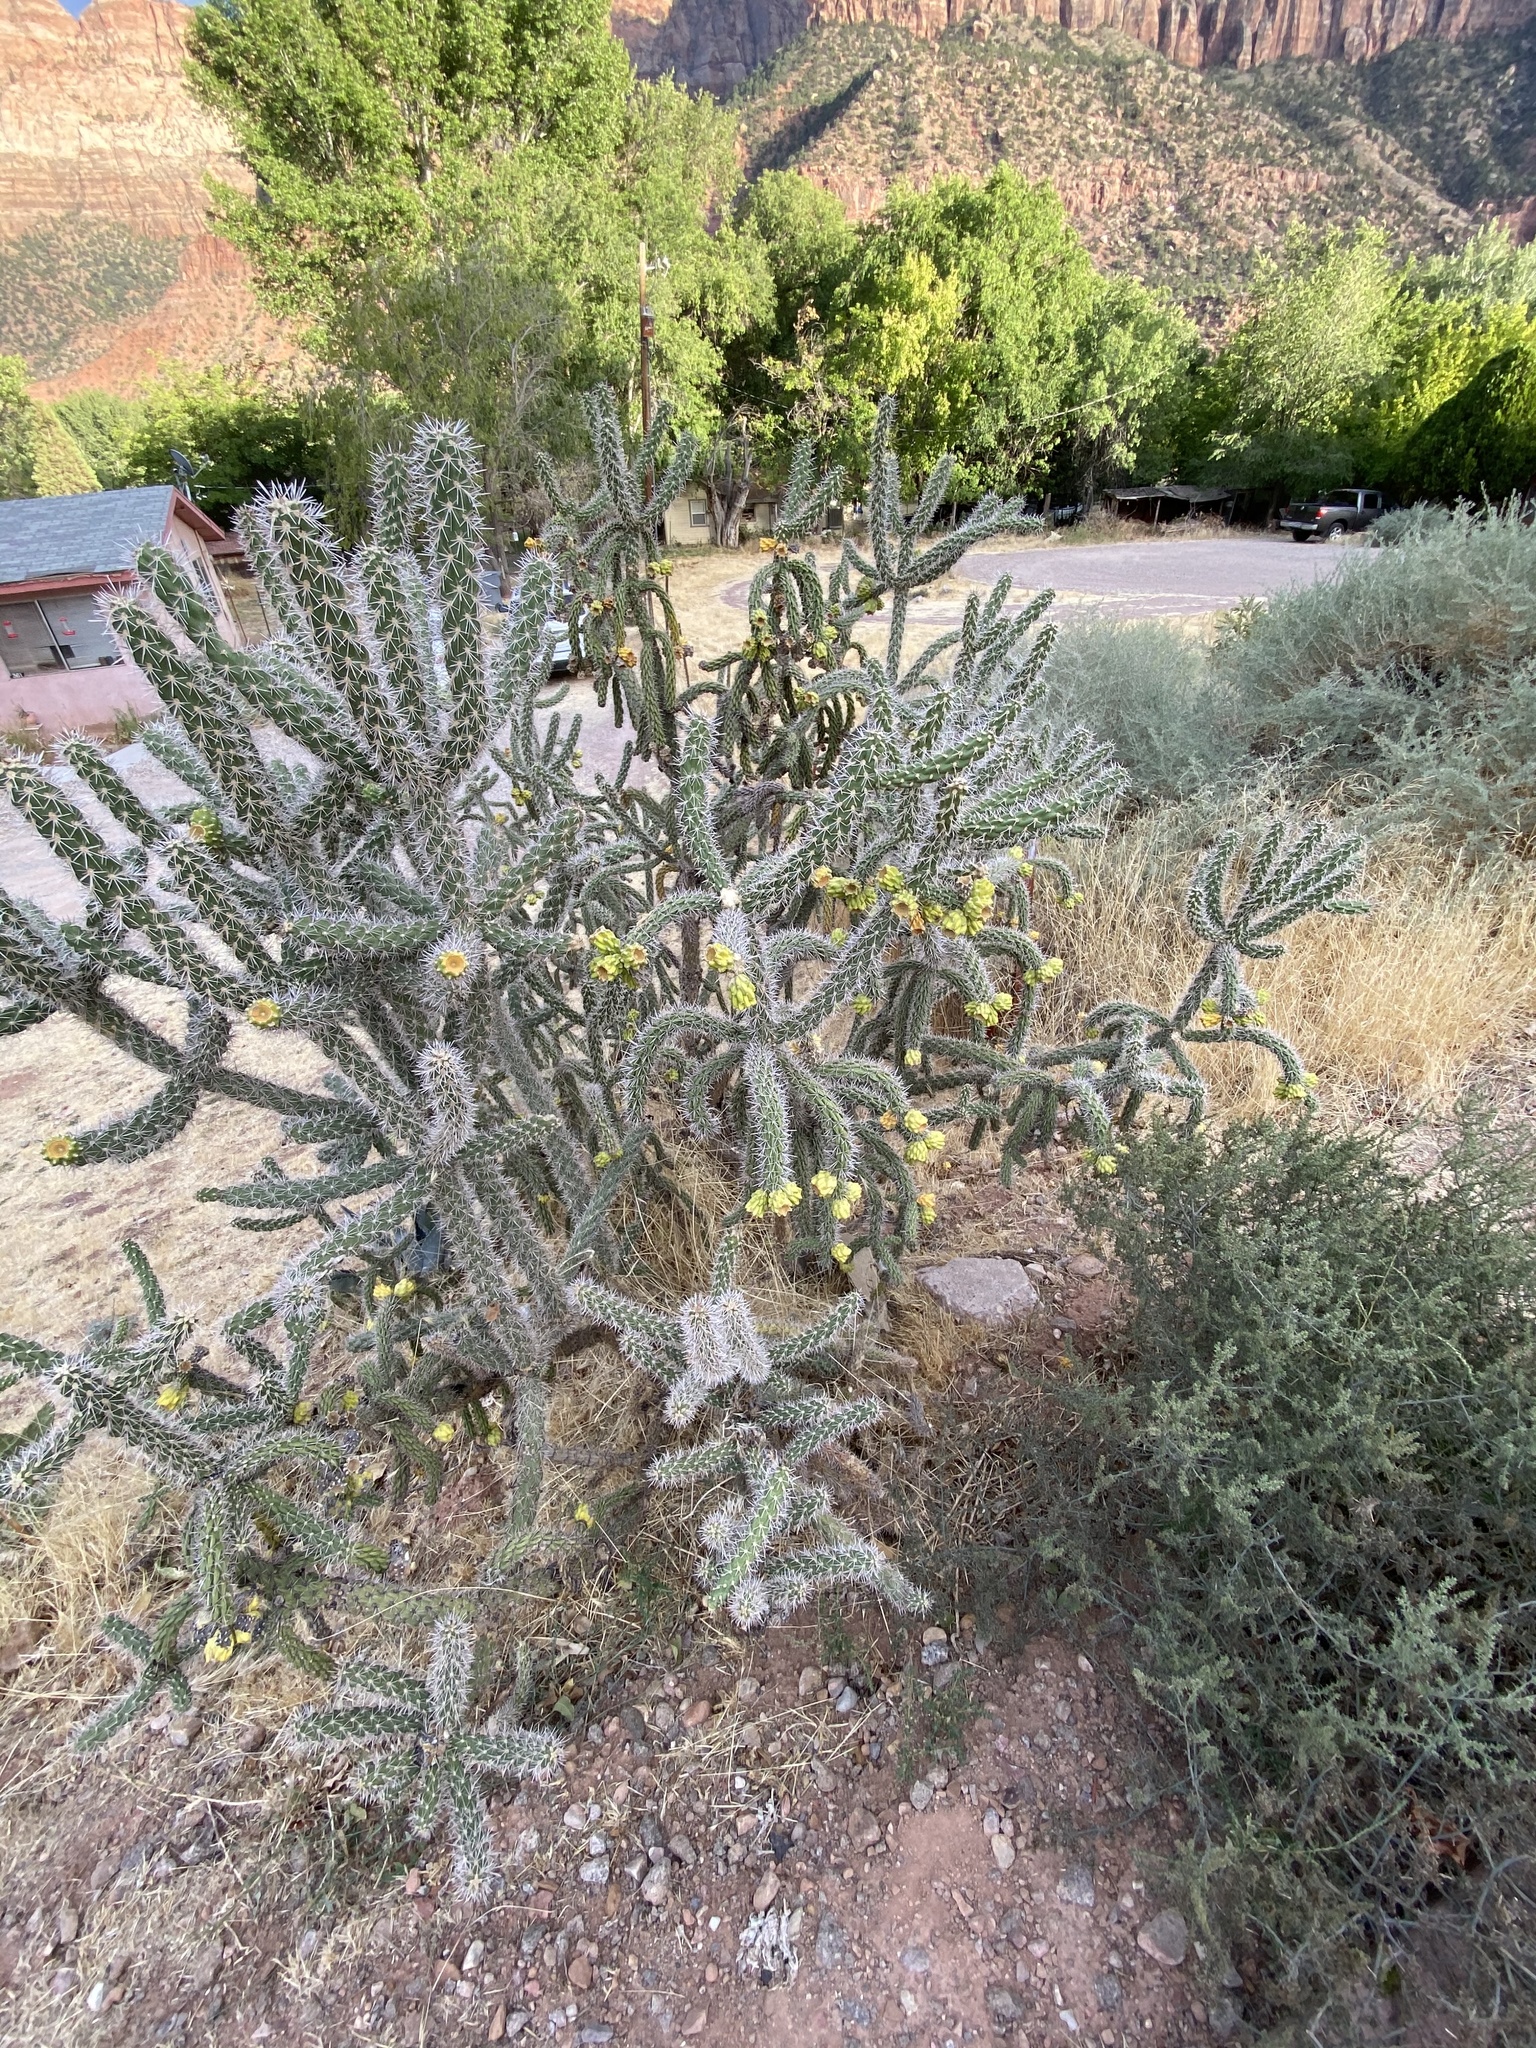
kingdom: Plantae
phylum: Tracheophyta
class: Magnoliopsida
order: Caryophyllales
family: Cactaceae
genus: Cylindropuntia
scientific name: Cylindropuntia whipplei
